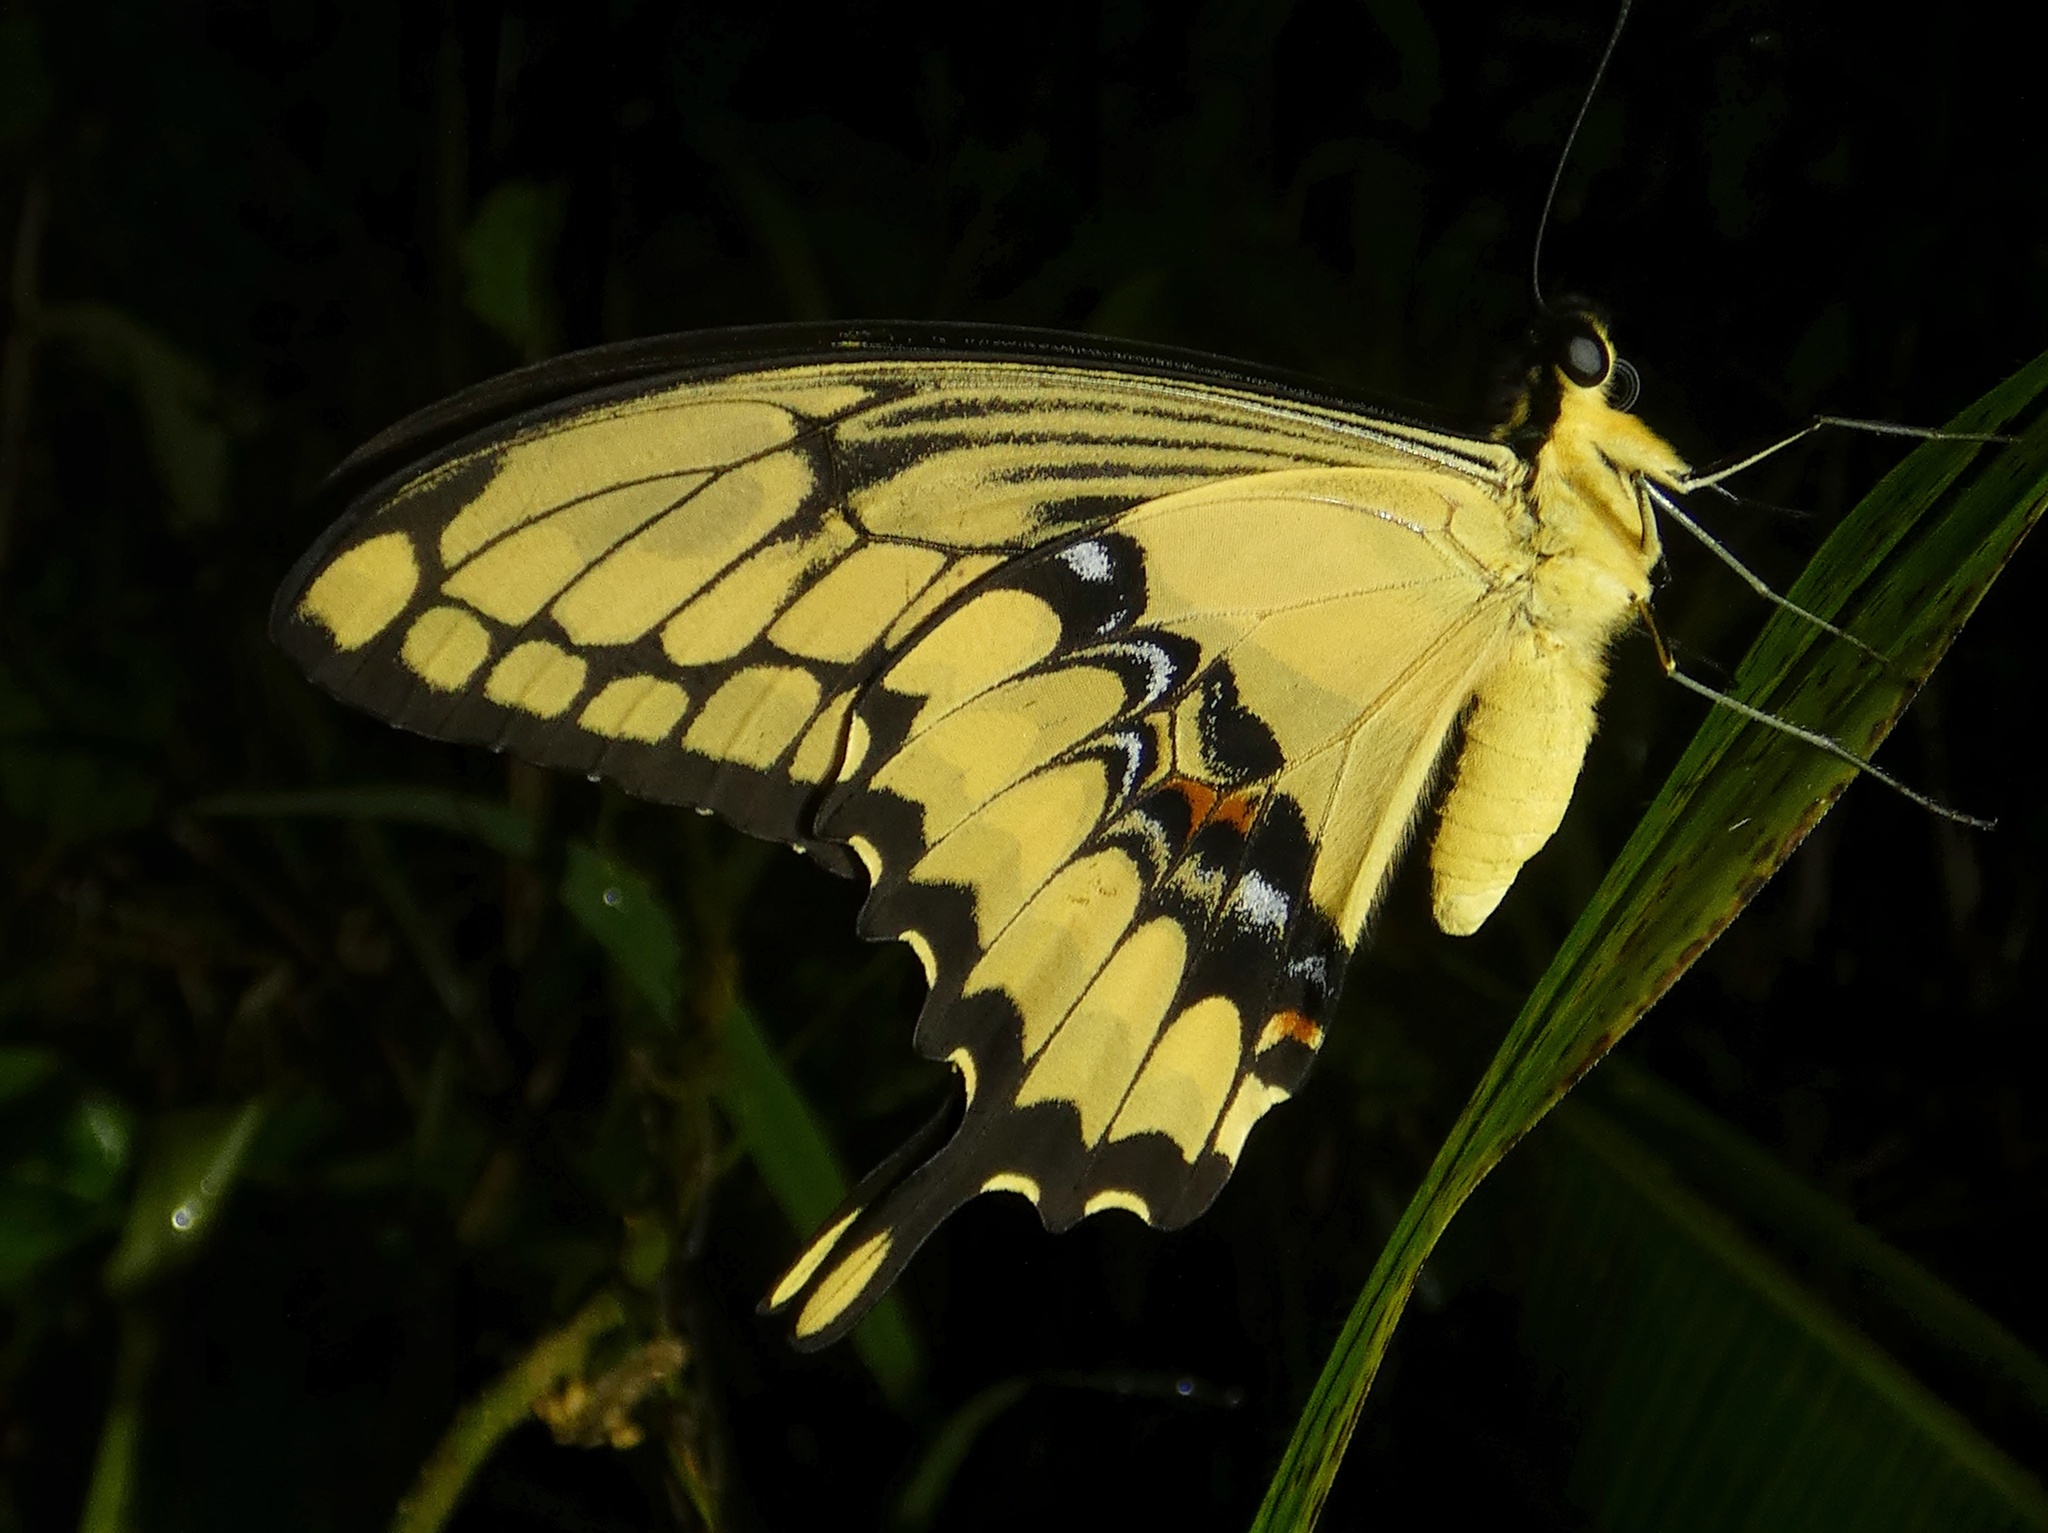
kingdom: Animalia
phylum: Arthropoda
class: Insecta
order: Lepidoptera
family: Papilionidae
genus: Papilio
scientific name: Papilio thoas
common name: King swallowtail
